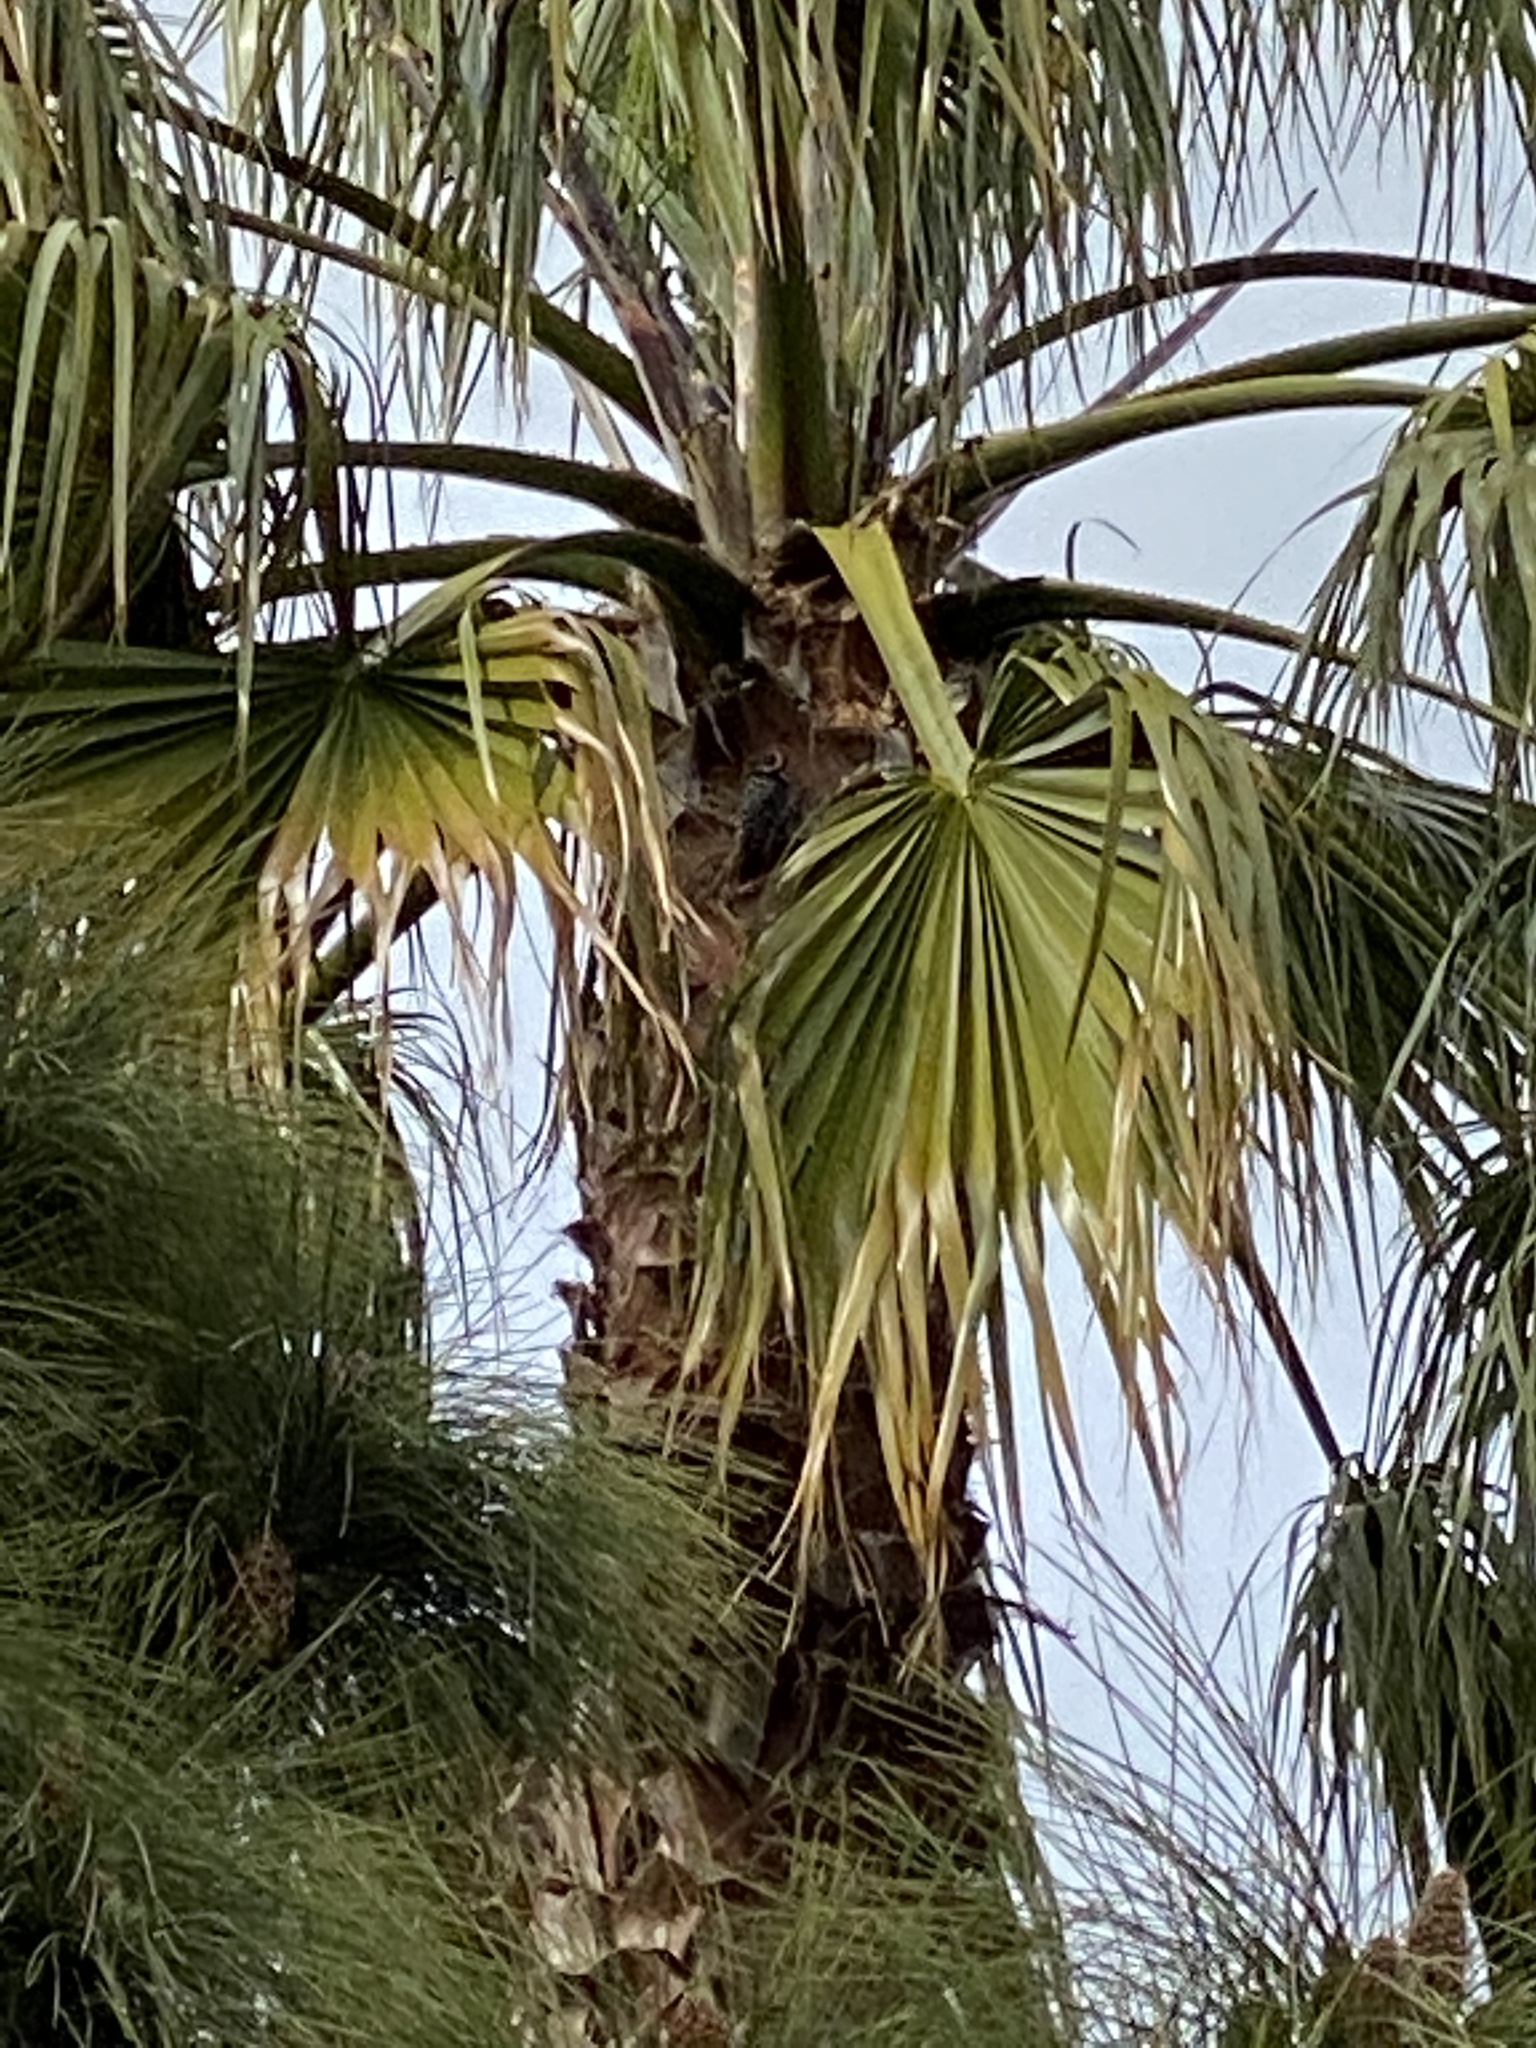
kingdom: Animalia
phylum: Chordata
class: Aves
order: Piciformes
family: Picidae
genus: Dryobates
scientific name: Dryobates nuttallii
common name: Nuttall's woodpecker
